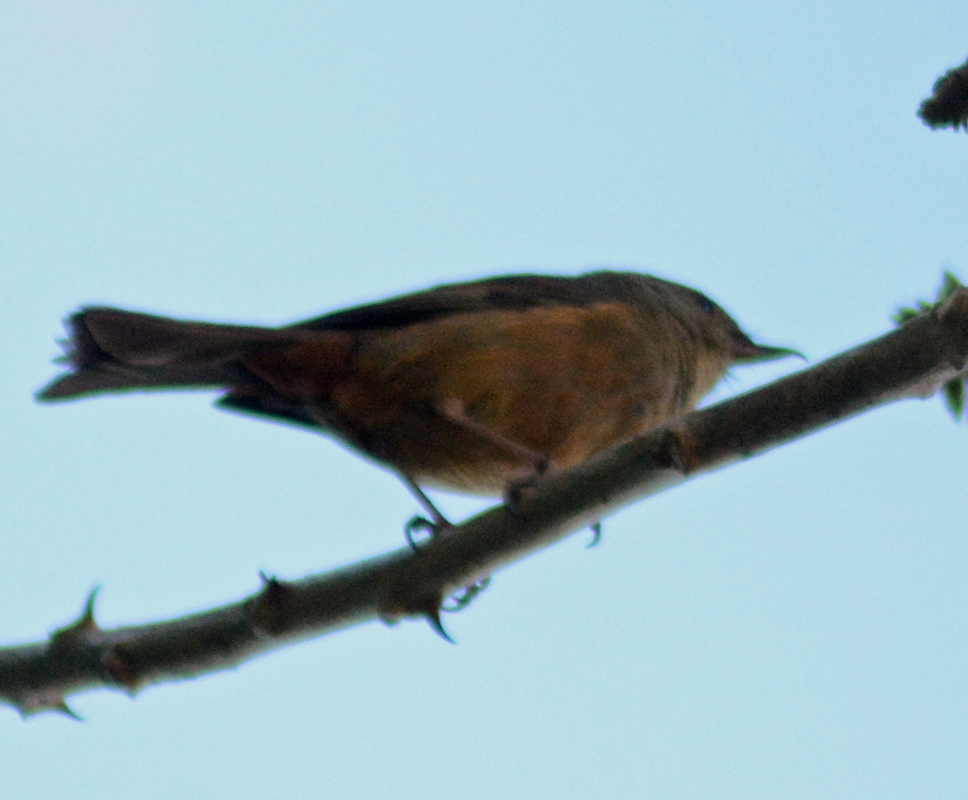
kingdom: Animalia
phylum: Chordata
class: Aves
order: Passeriformes
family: Thraupidae
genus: Diglossa
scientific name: Diglossa baritula
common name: Cinnamon-bellied flowerpiercer
